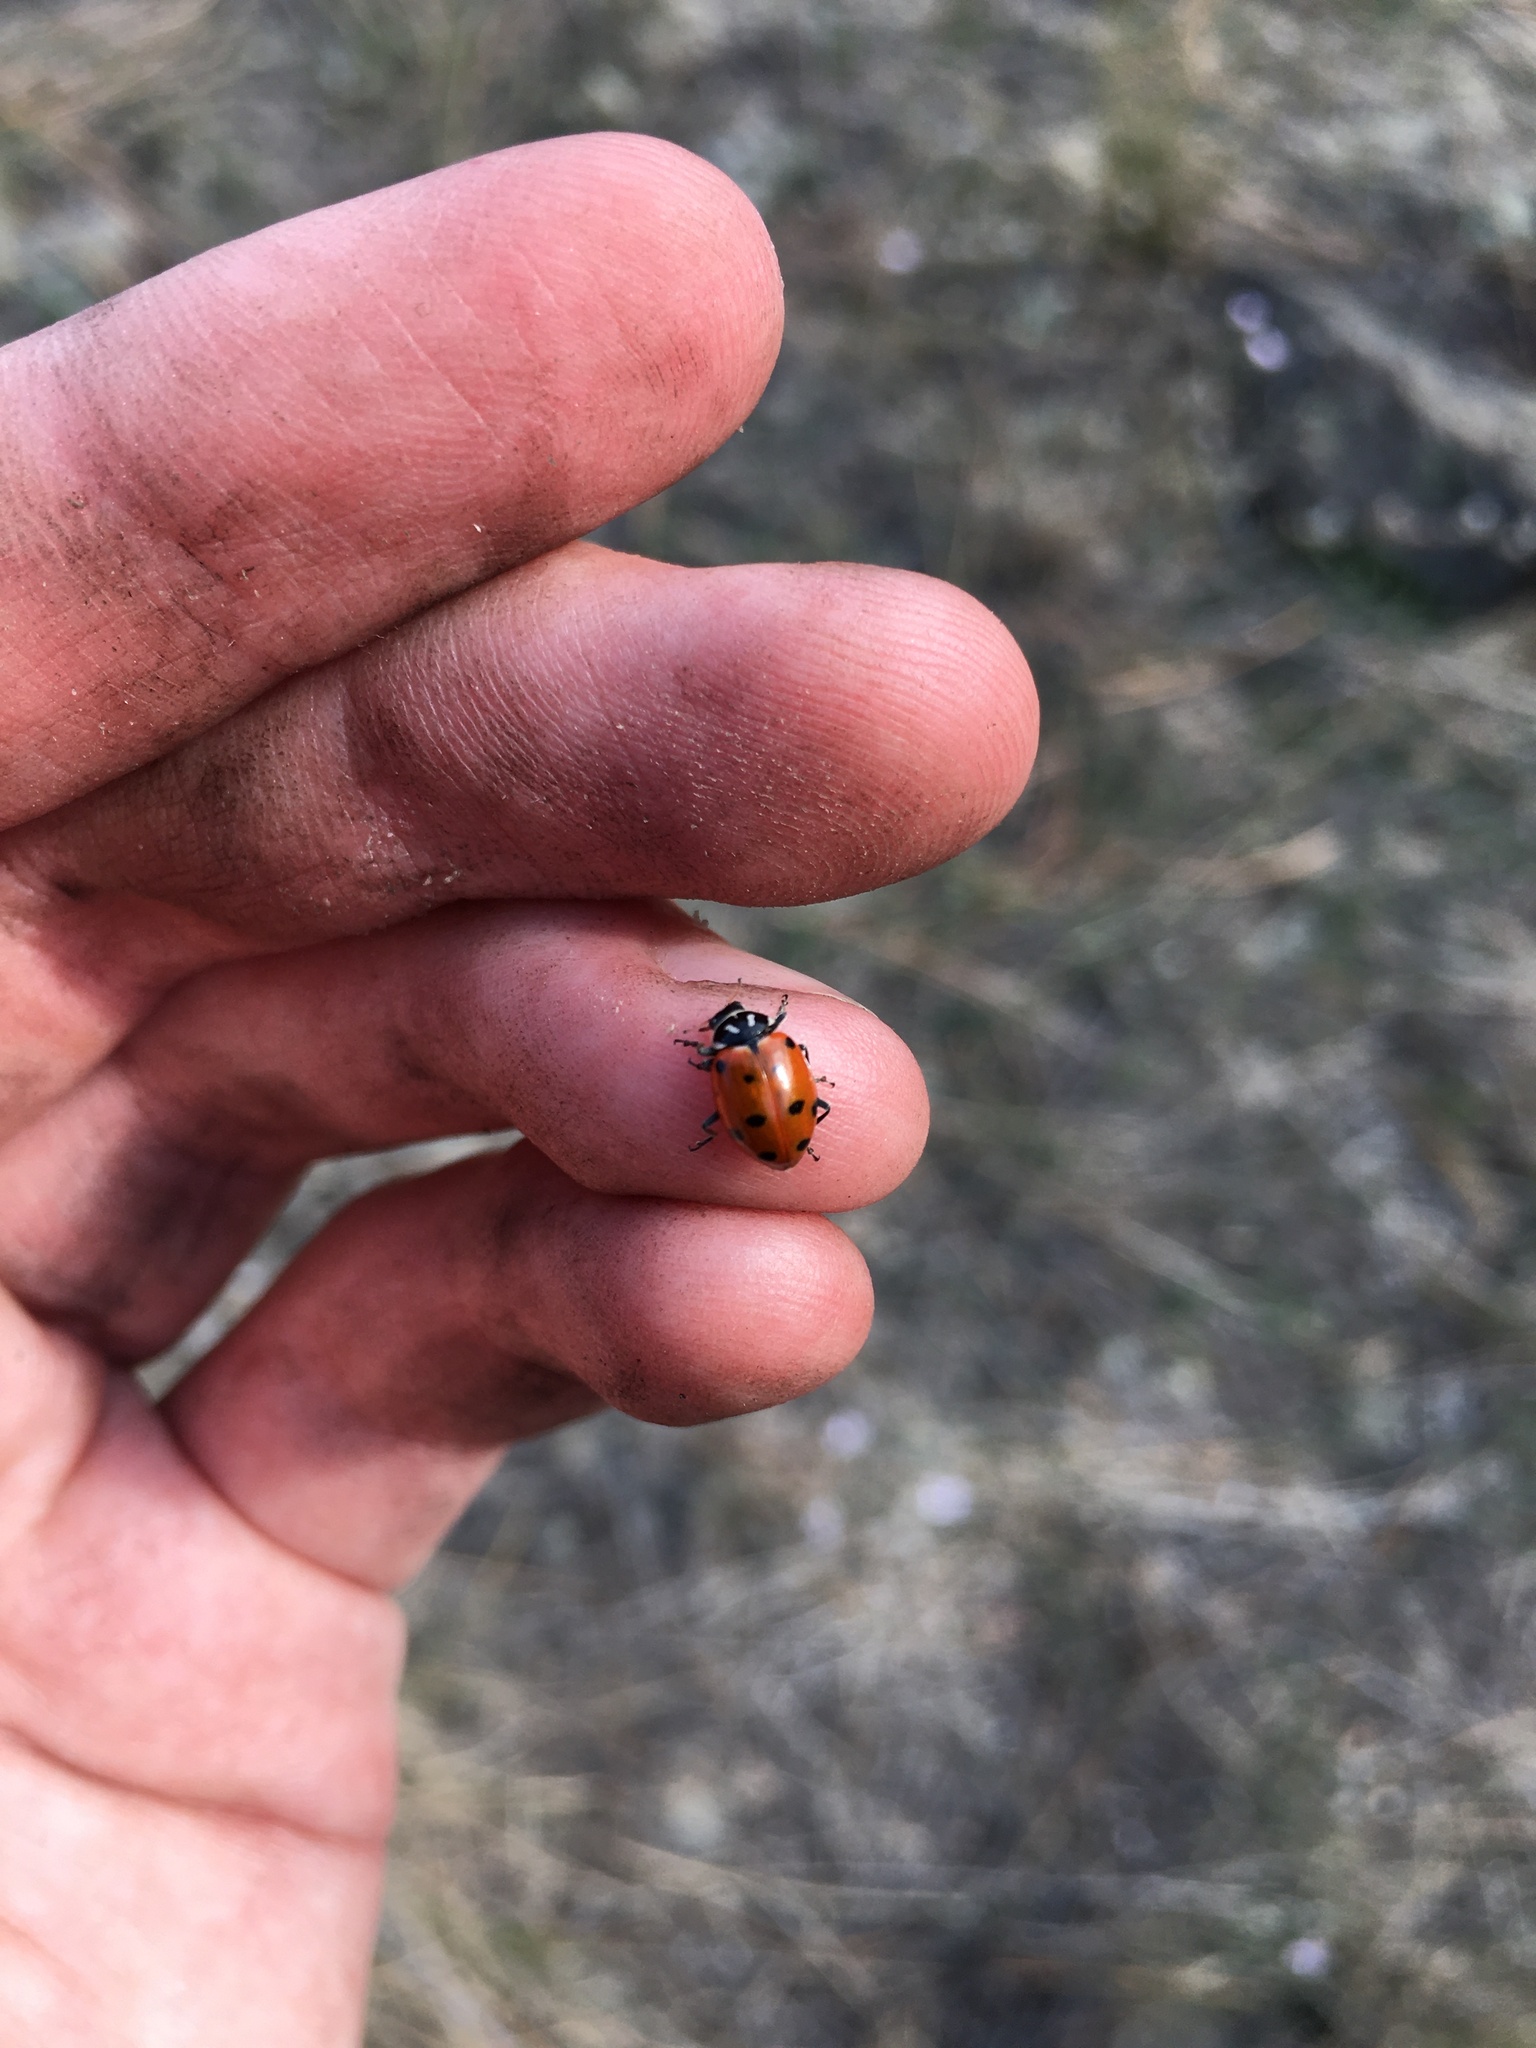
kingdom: Animalia
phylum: Arthropoda
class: Insecta
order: Coleoptera
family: Coccinellidae
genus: Hippodamia
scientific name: Hippodamia convergens
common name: Convergent lady beetle
